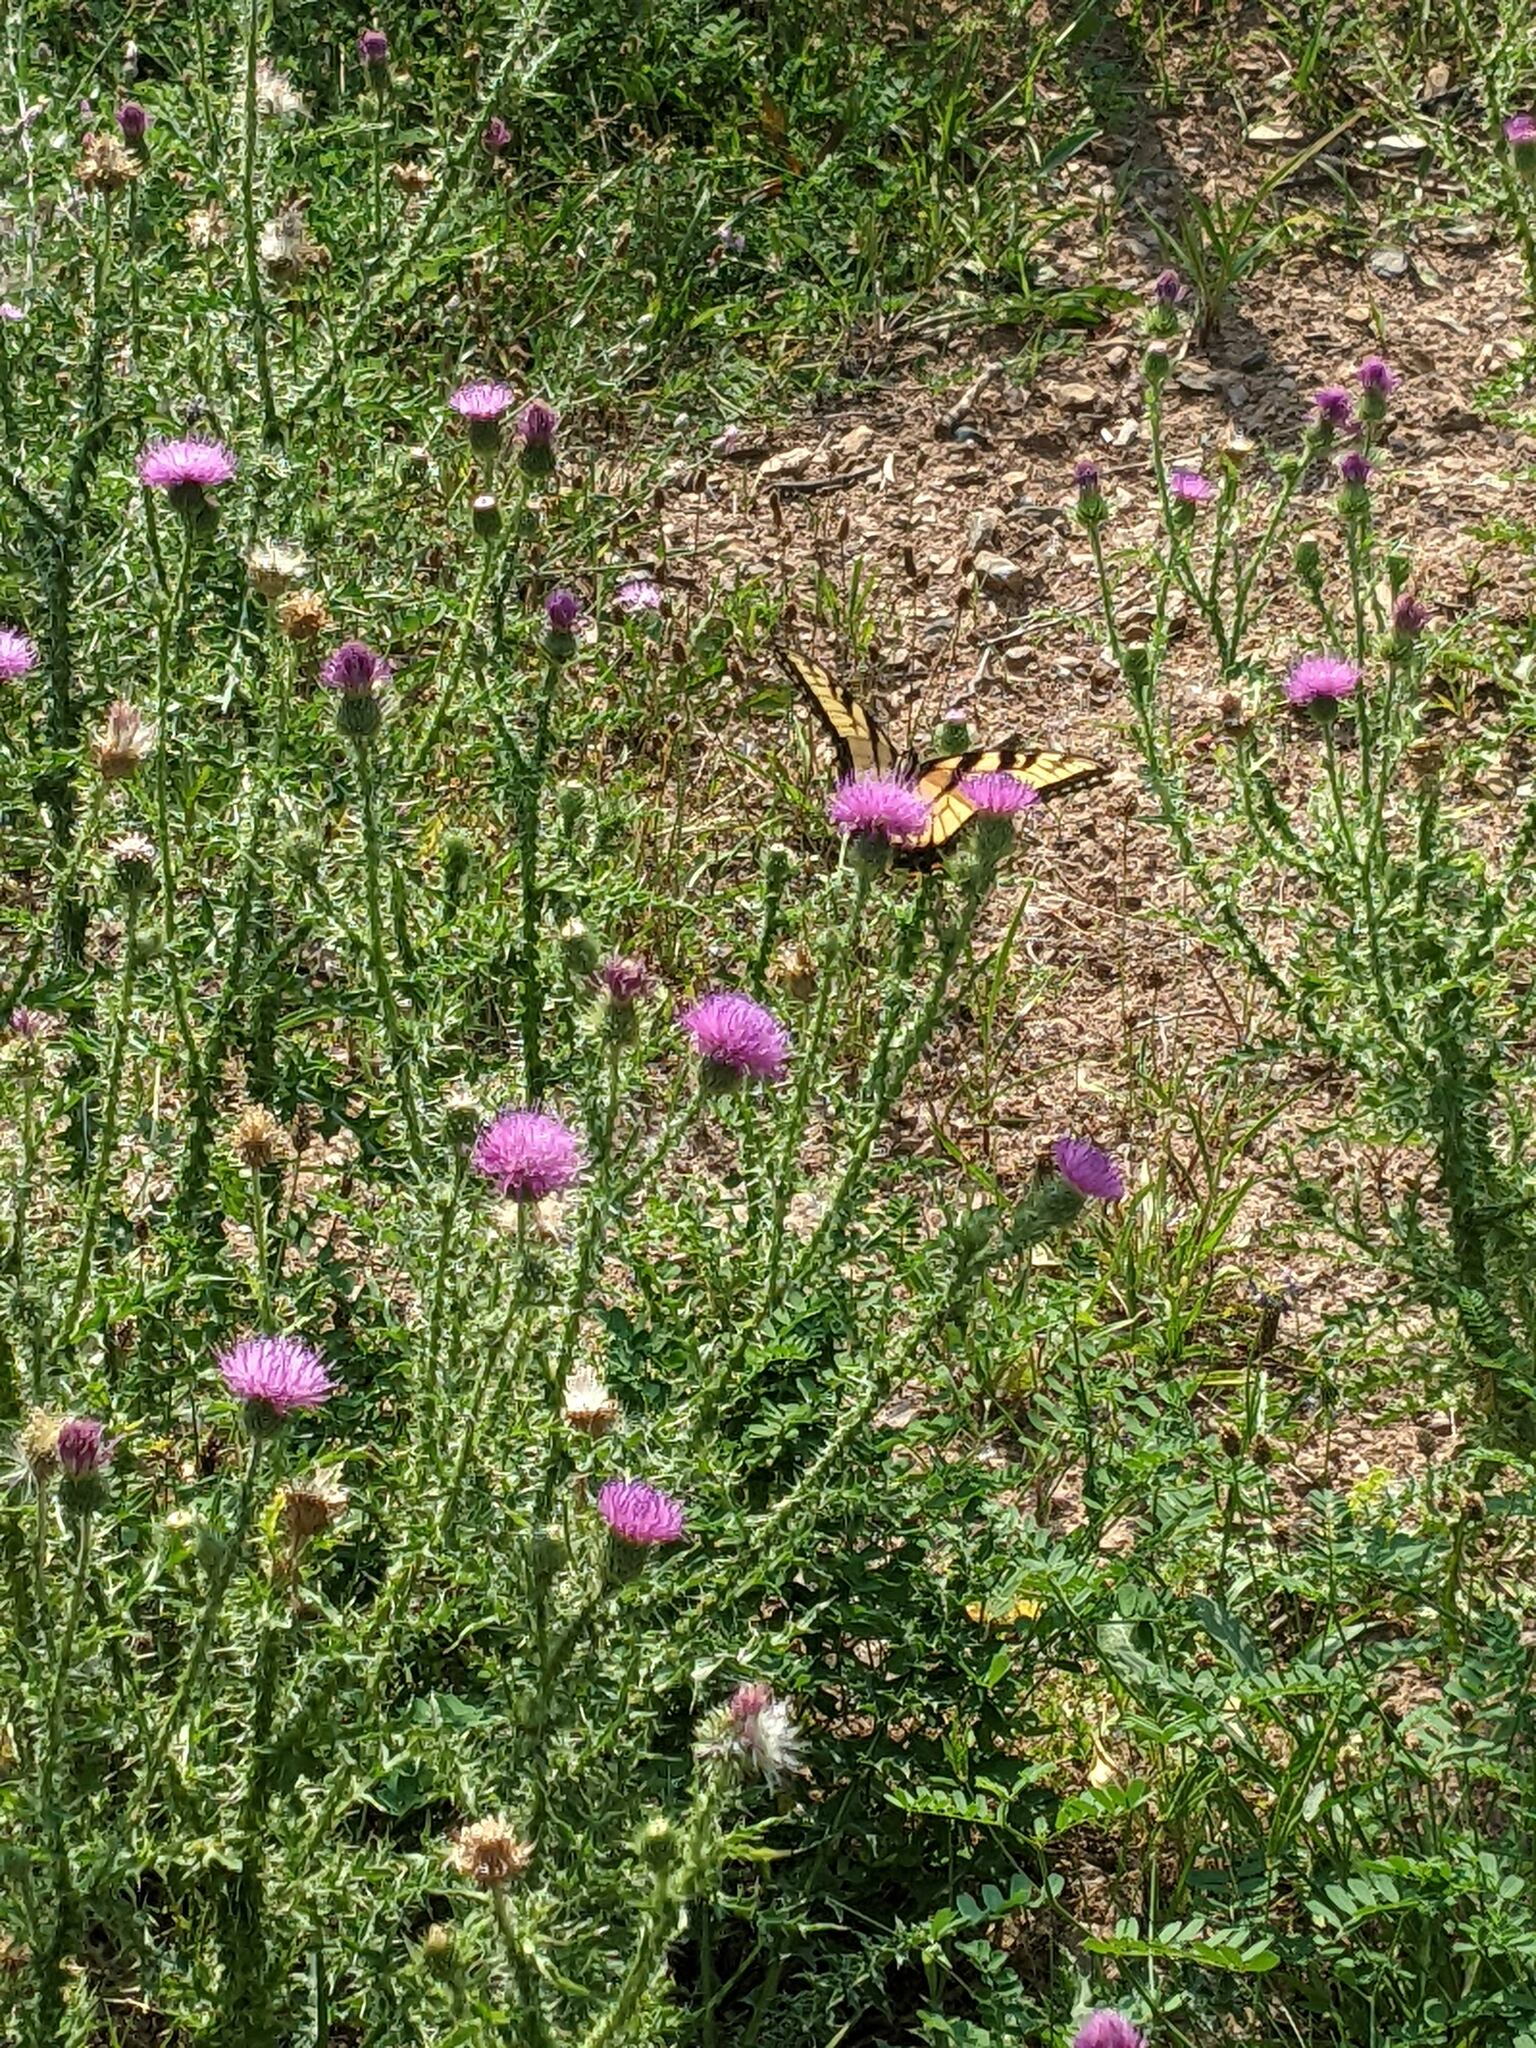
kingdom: Animalia
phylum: Arthropoda
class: Insecta
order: Lepidoptera
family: Papilionidae
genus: Papilio
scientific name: Papilio glaucus
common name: Tiger swallowtail
